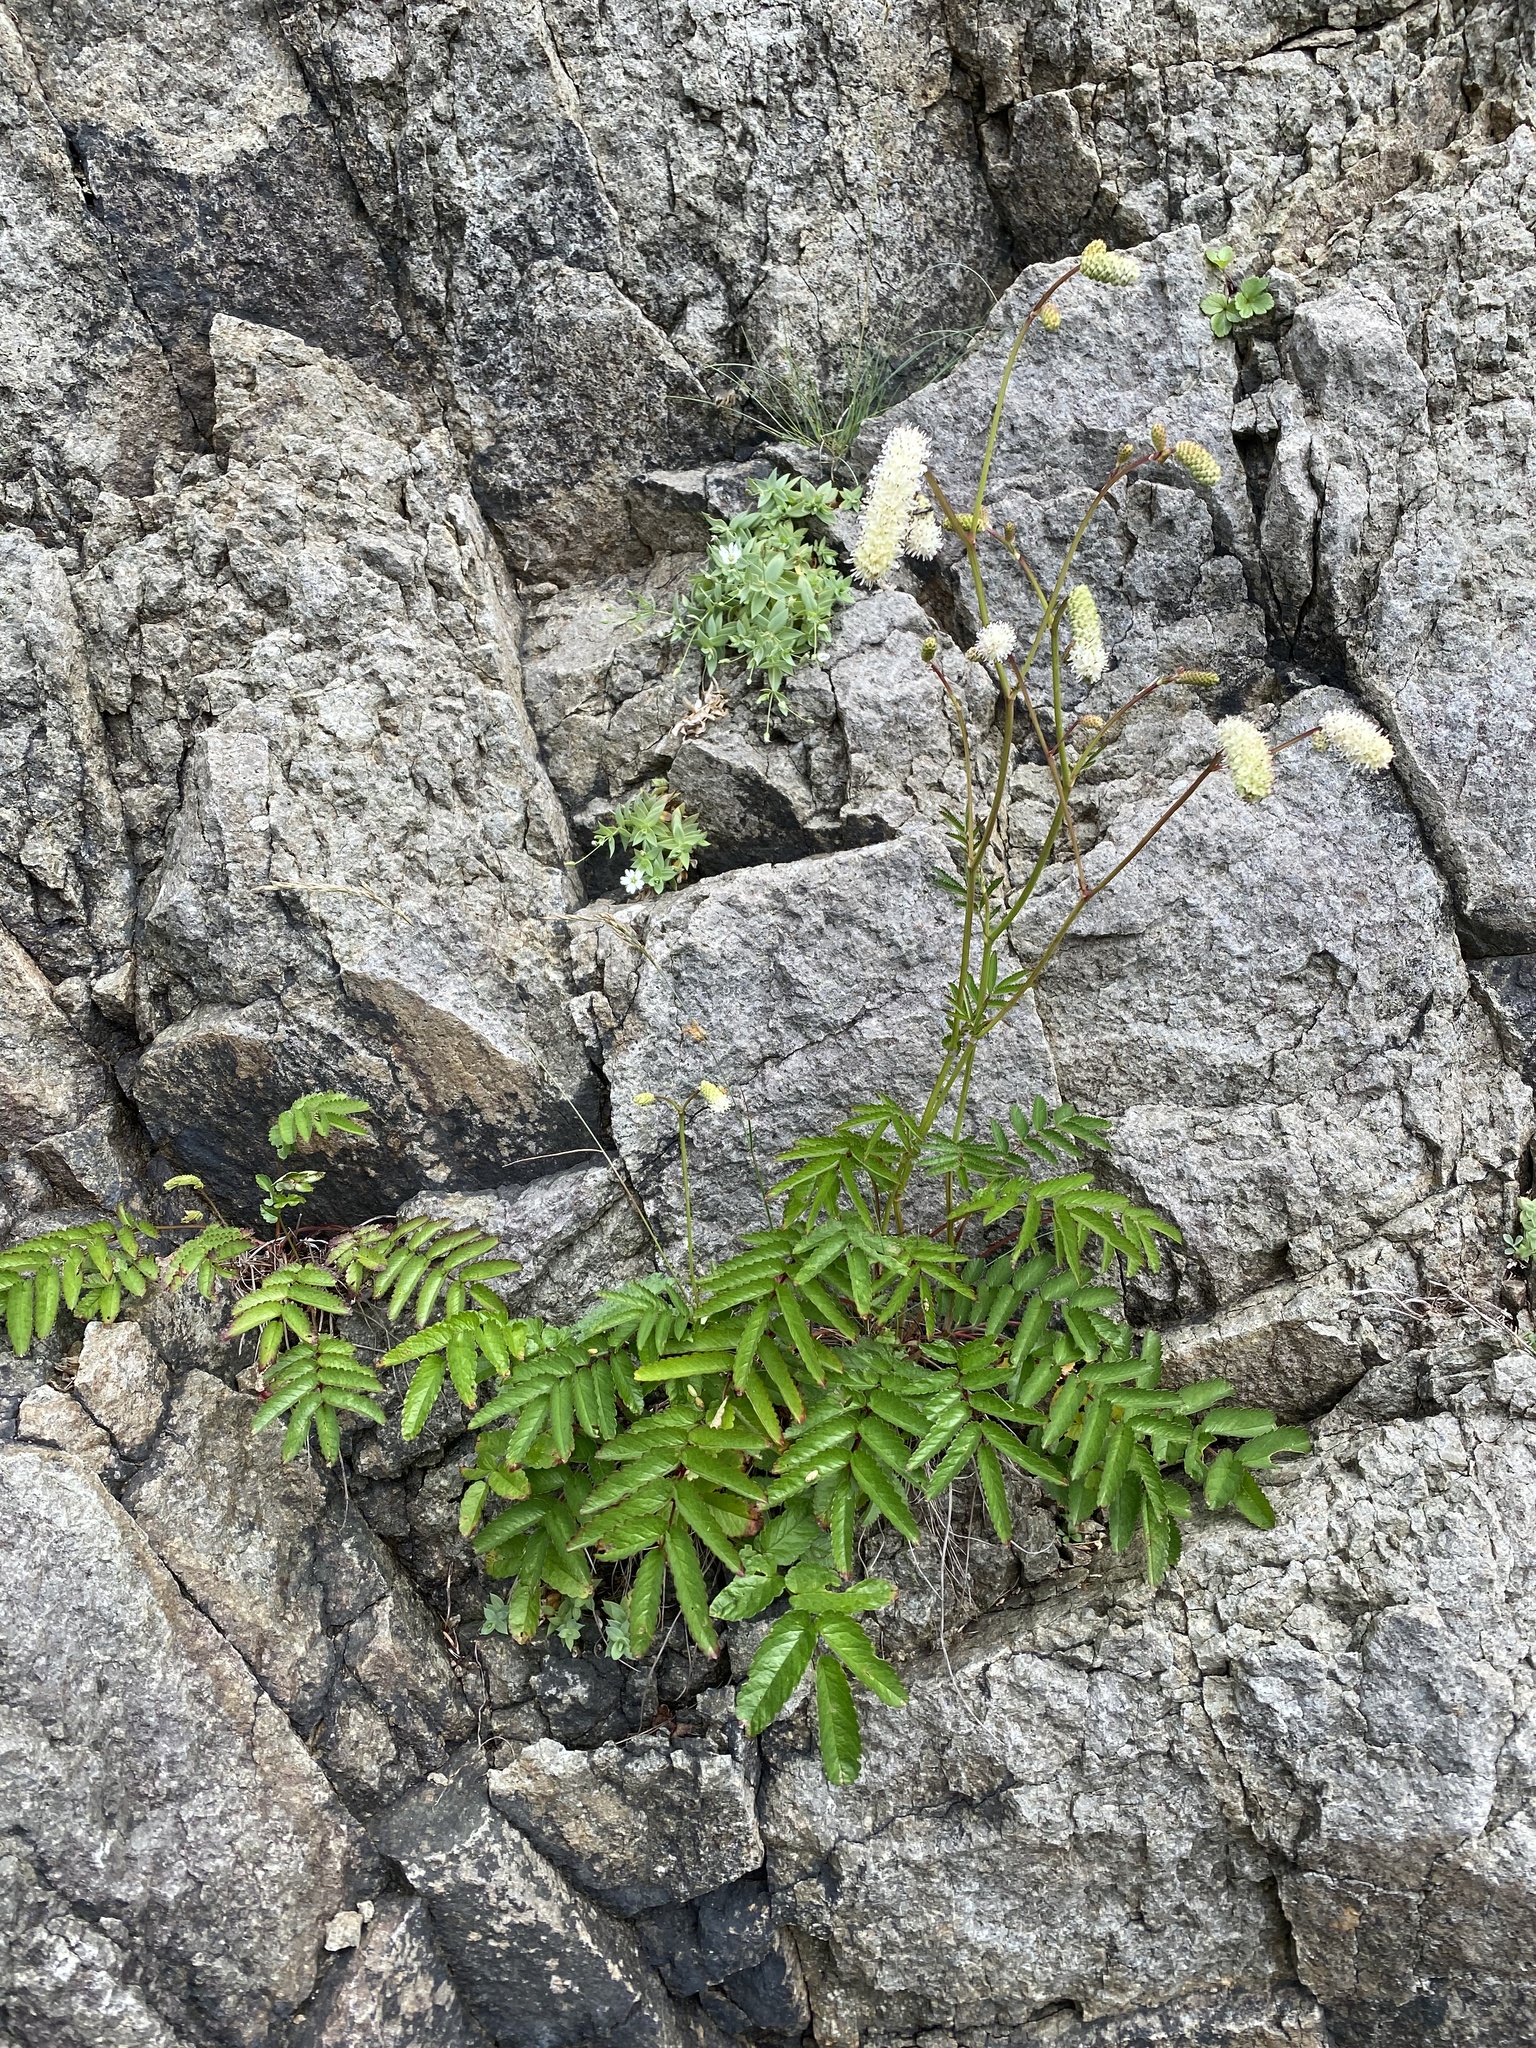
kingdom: Plantae
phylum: Tracheophyta
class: Magnoliopsida
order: Rosales
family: Rosaceae
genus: Poterium
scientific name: Poterium tenuifolium
